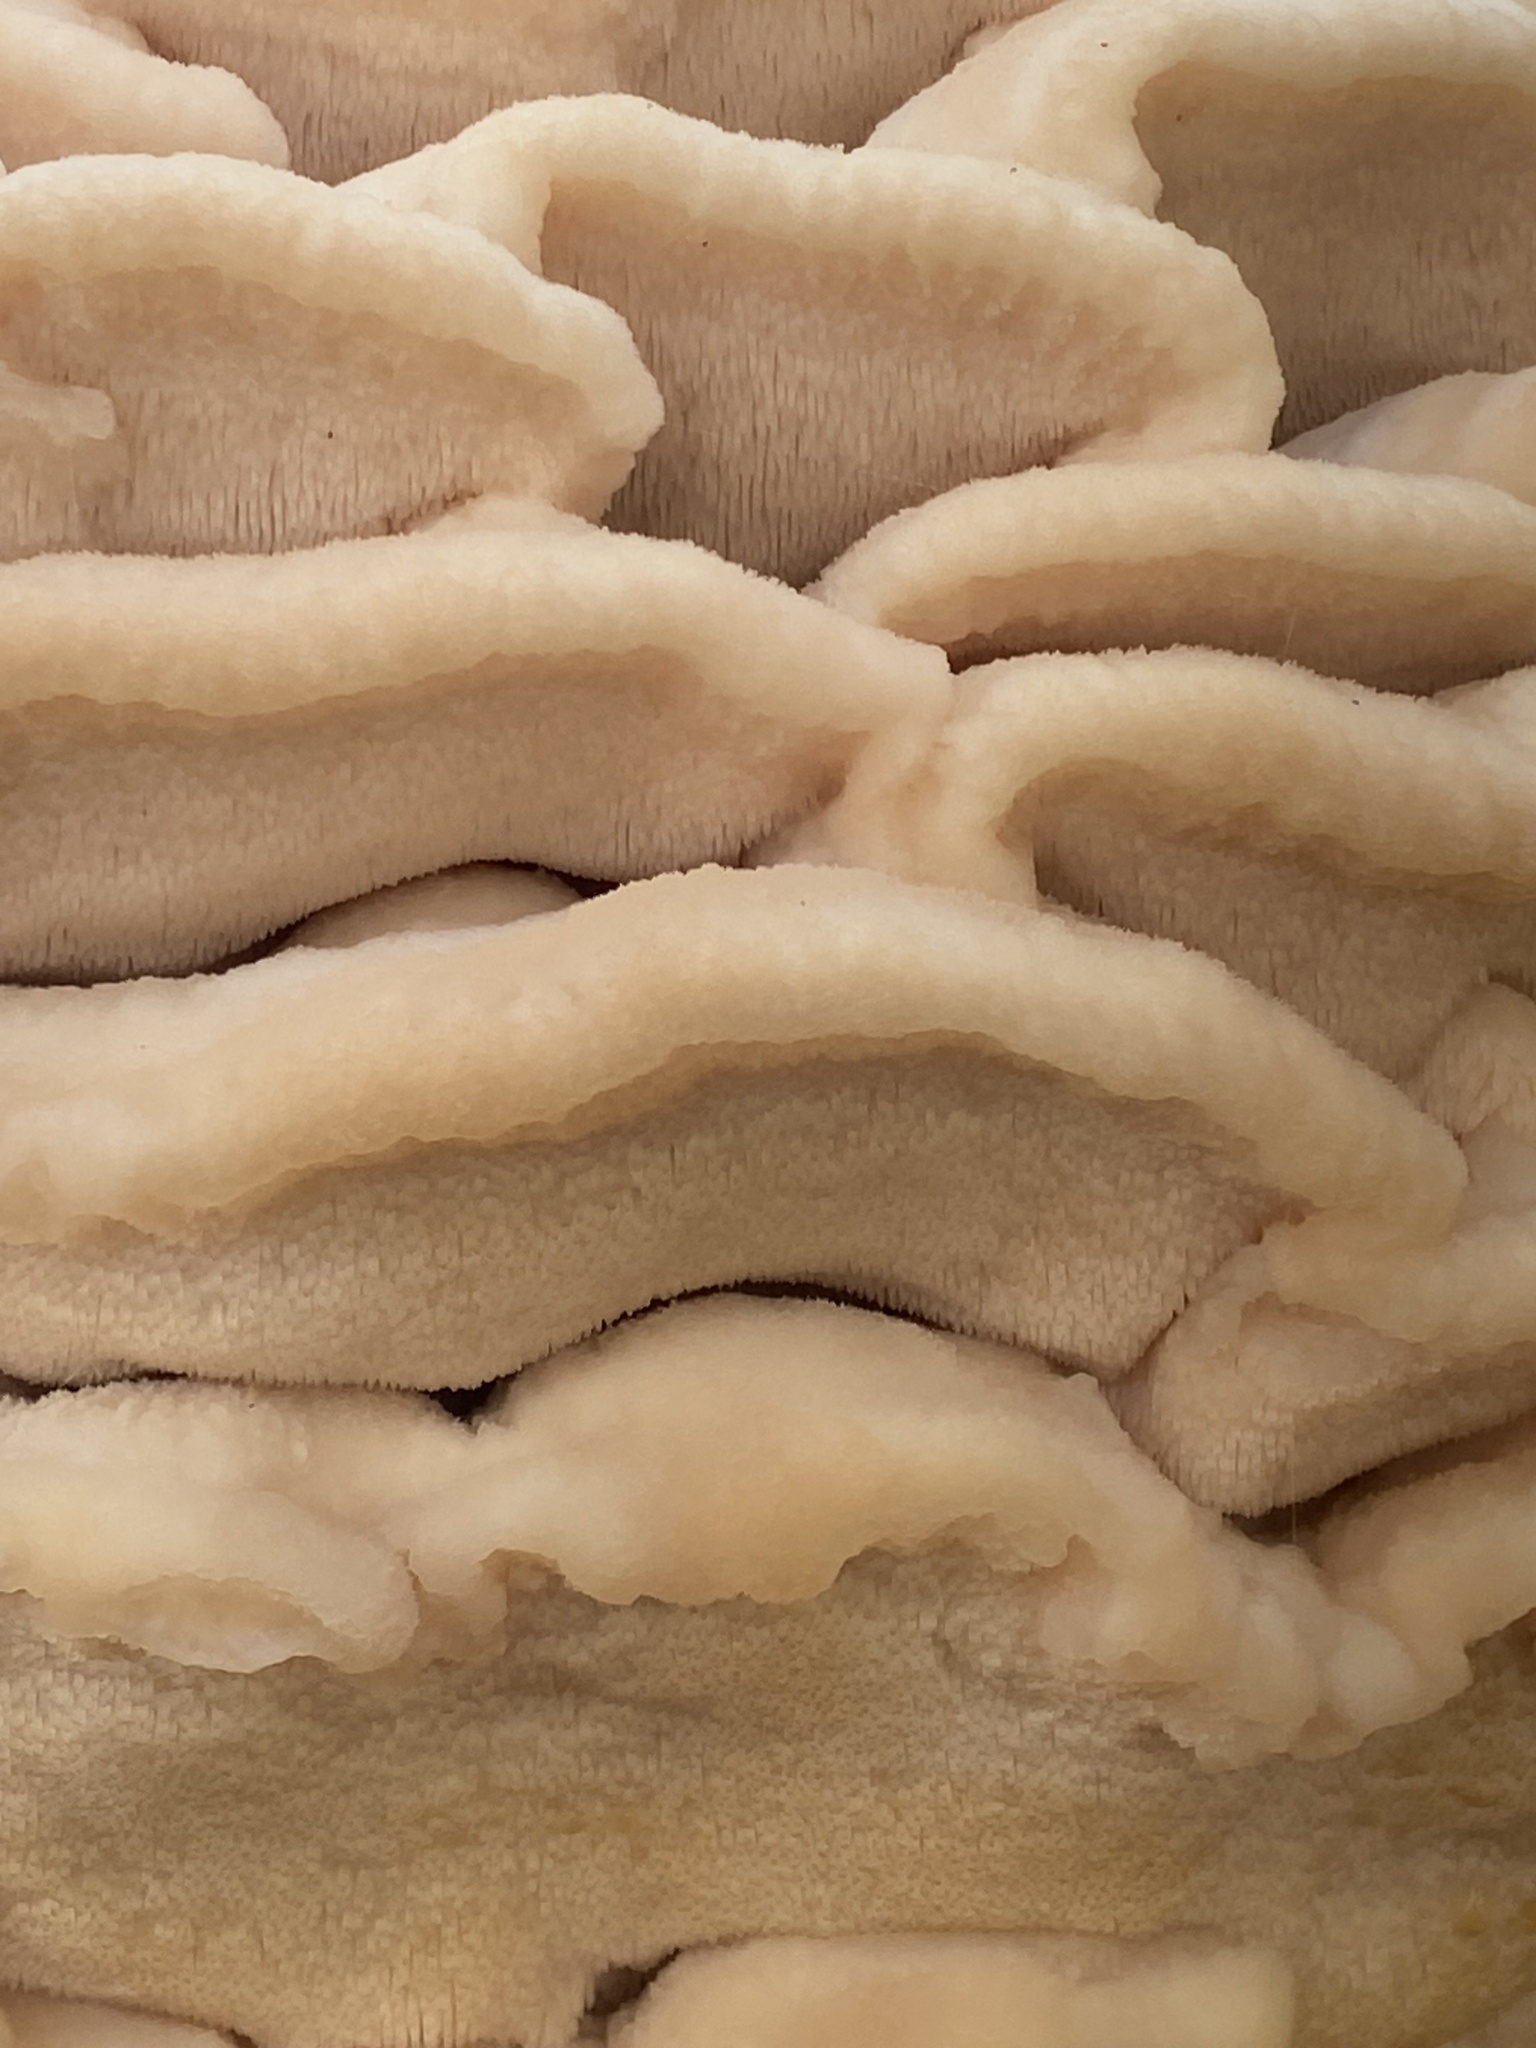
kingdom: Fungi
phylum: Basidiomycota
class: Agaricomycetes
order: Polyporales
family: Meruliaceae
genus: Climacodon
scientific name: Climacodon septentrionalis
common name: Northern tooth
